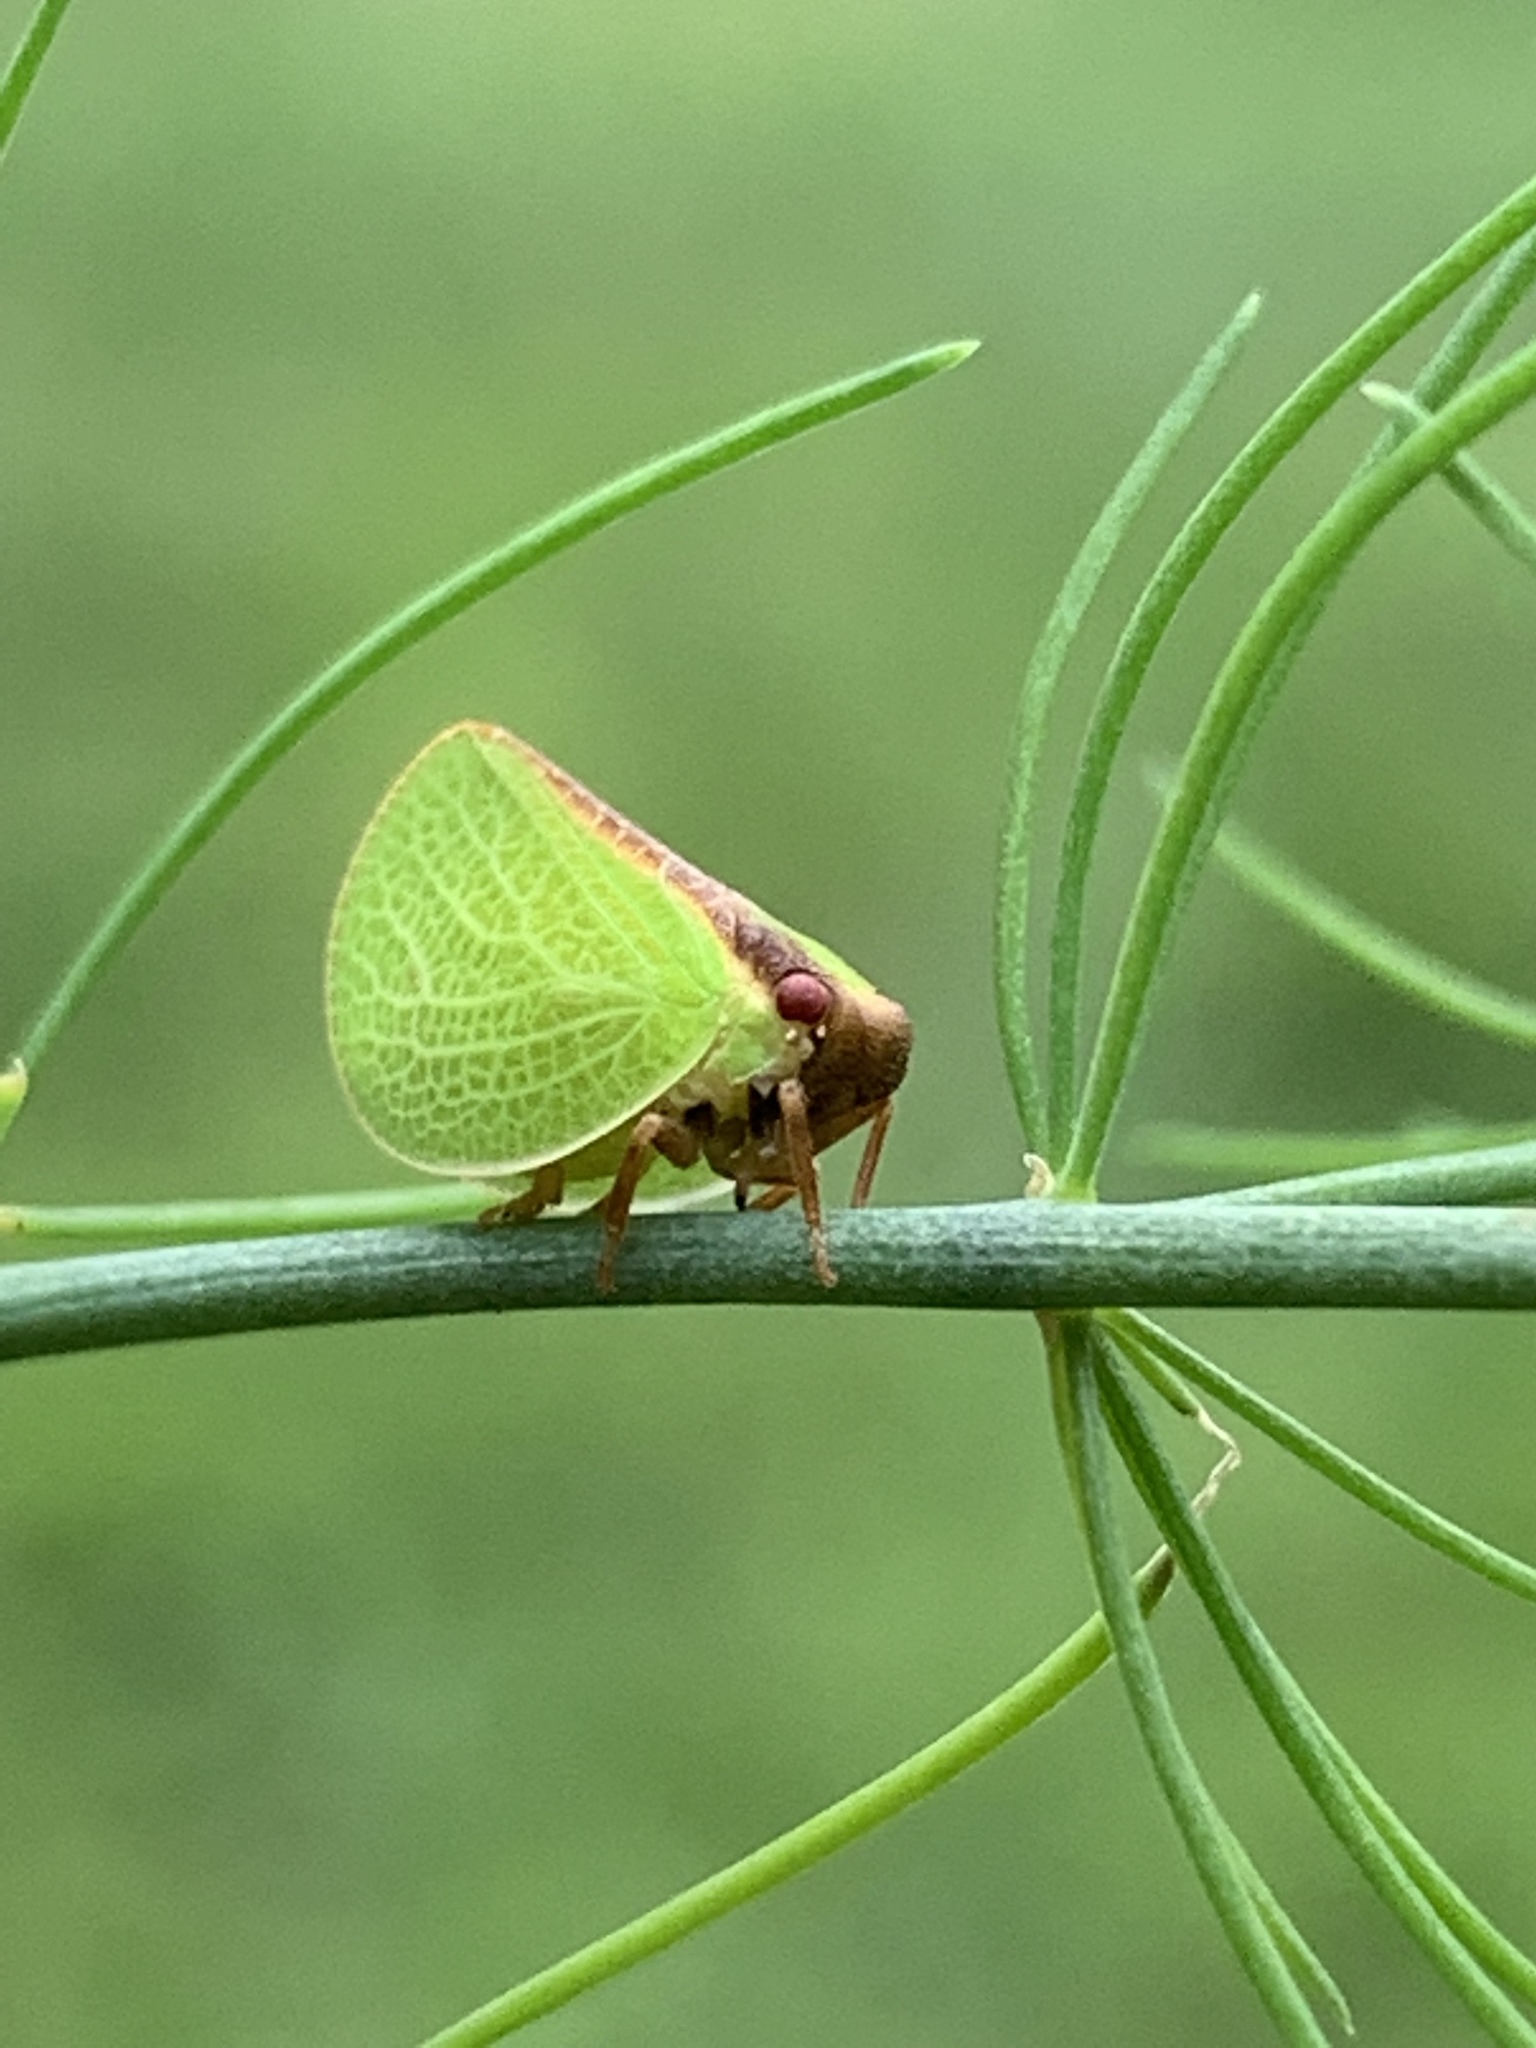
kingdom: Animalia
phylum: Arthropoda
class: Insecta
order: Hemiptera
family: Acanaloniidae
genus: Acanalonia
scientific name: Acanalonia bivittata
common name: Two-striped planthopper
